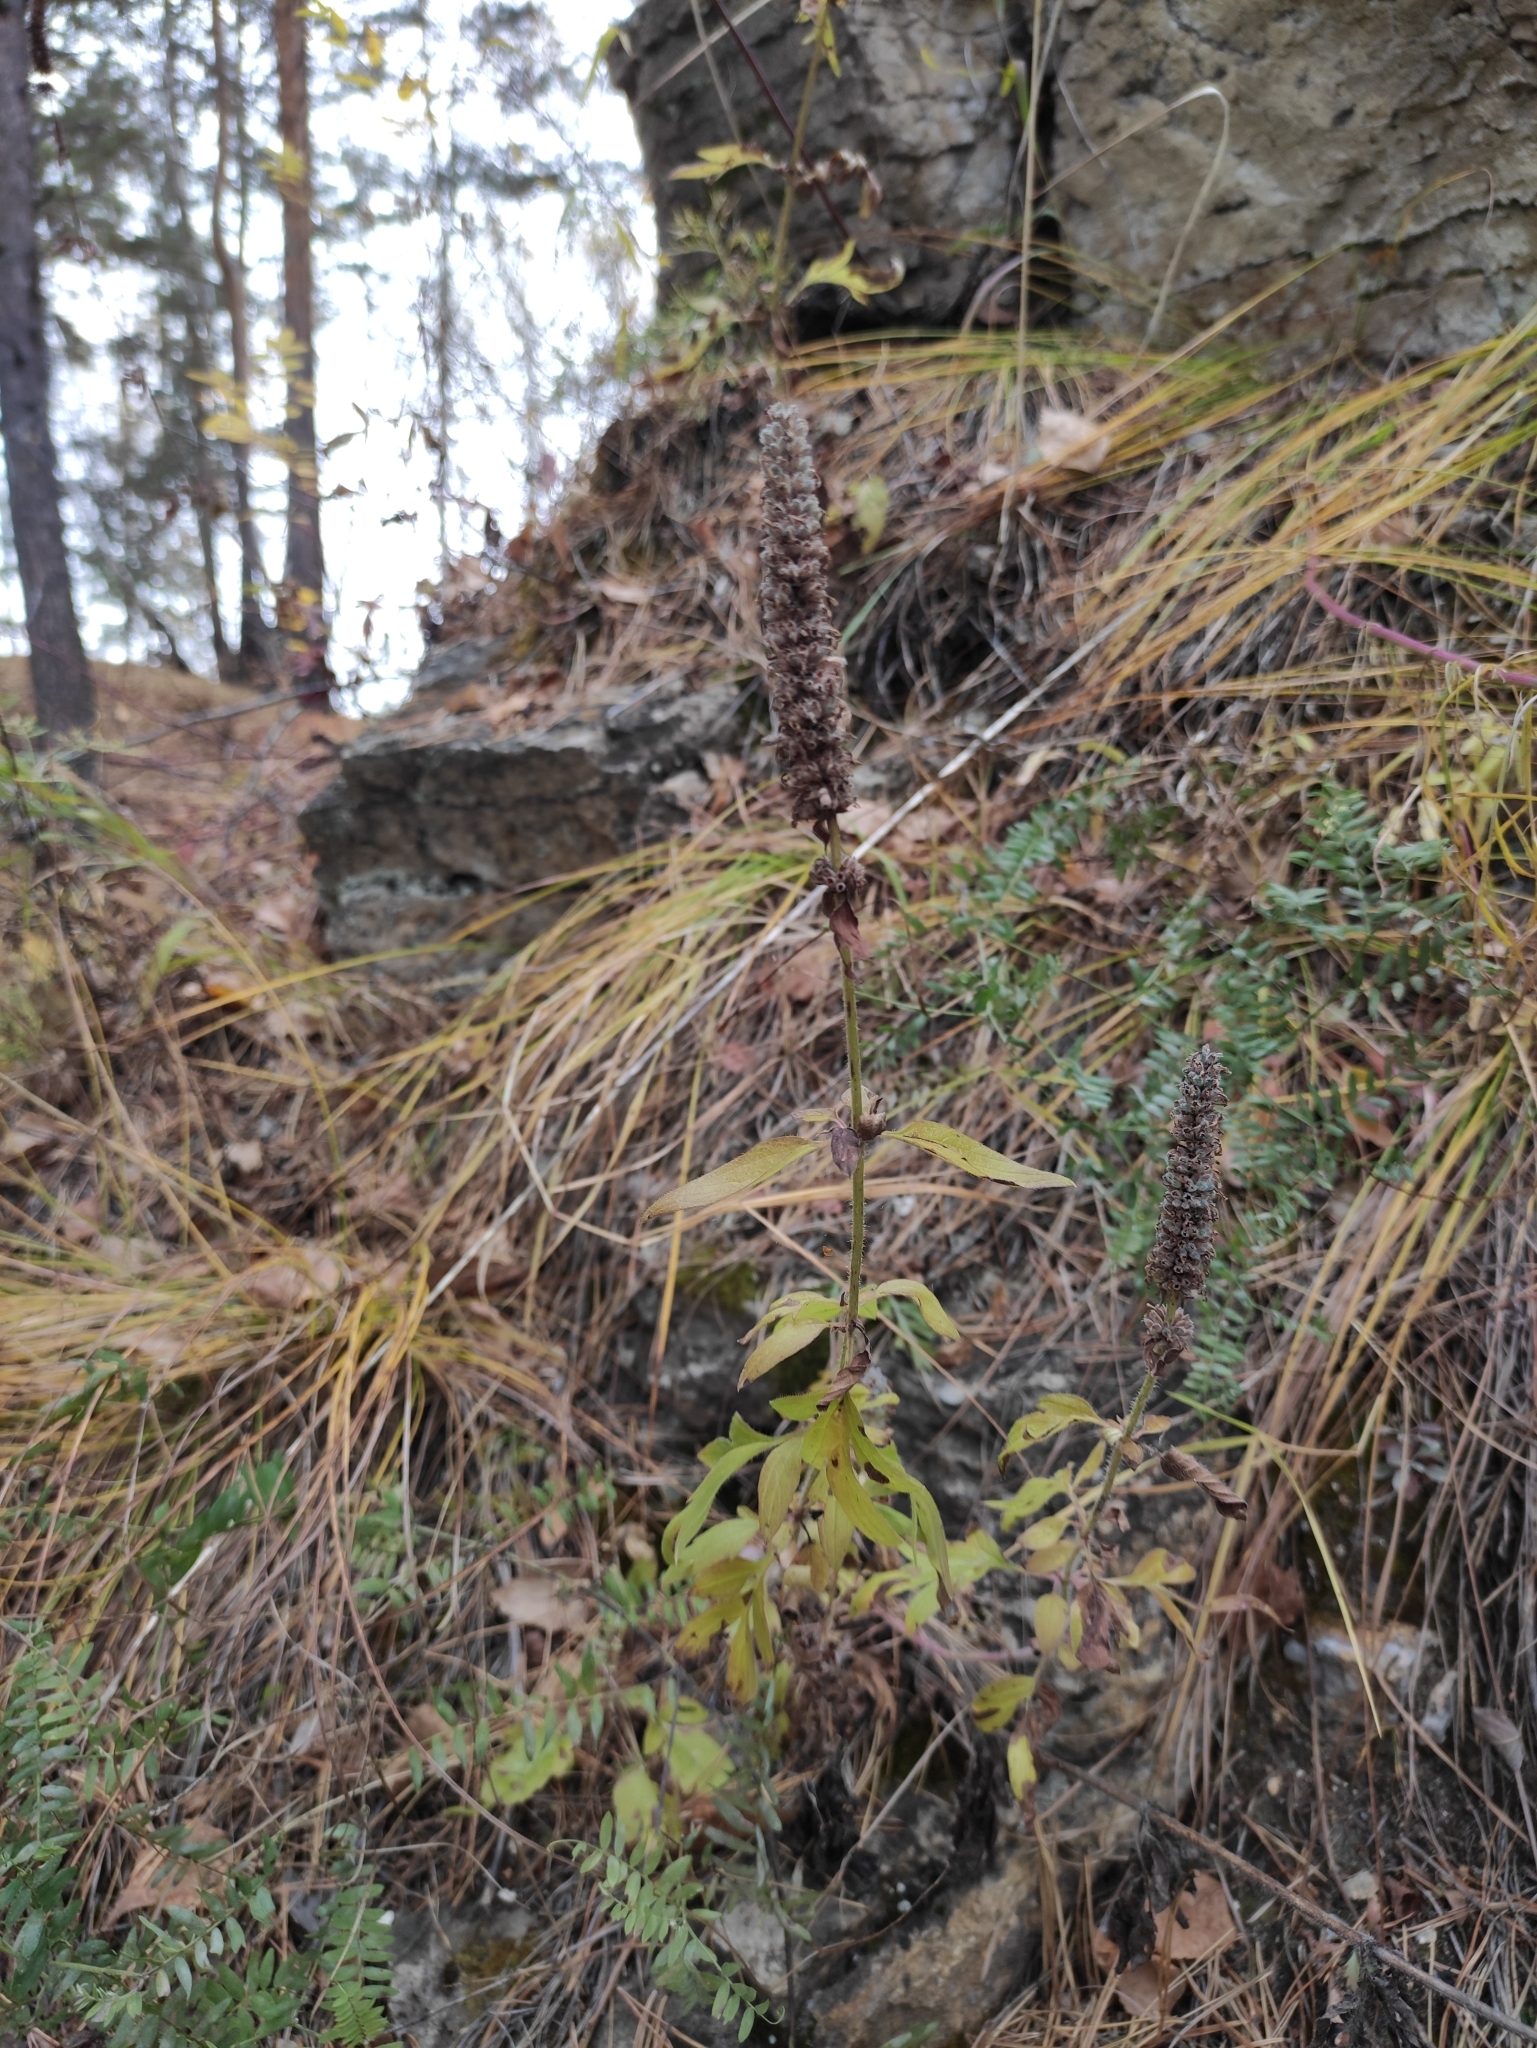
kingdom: Plantae
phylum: Tracheophyta
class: Magnoliopsida
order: Lamiales
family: Lamiaceae
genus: Nepeta
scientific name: Nepeta multifida
